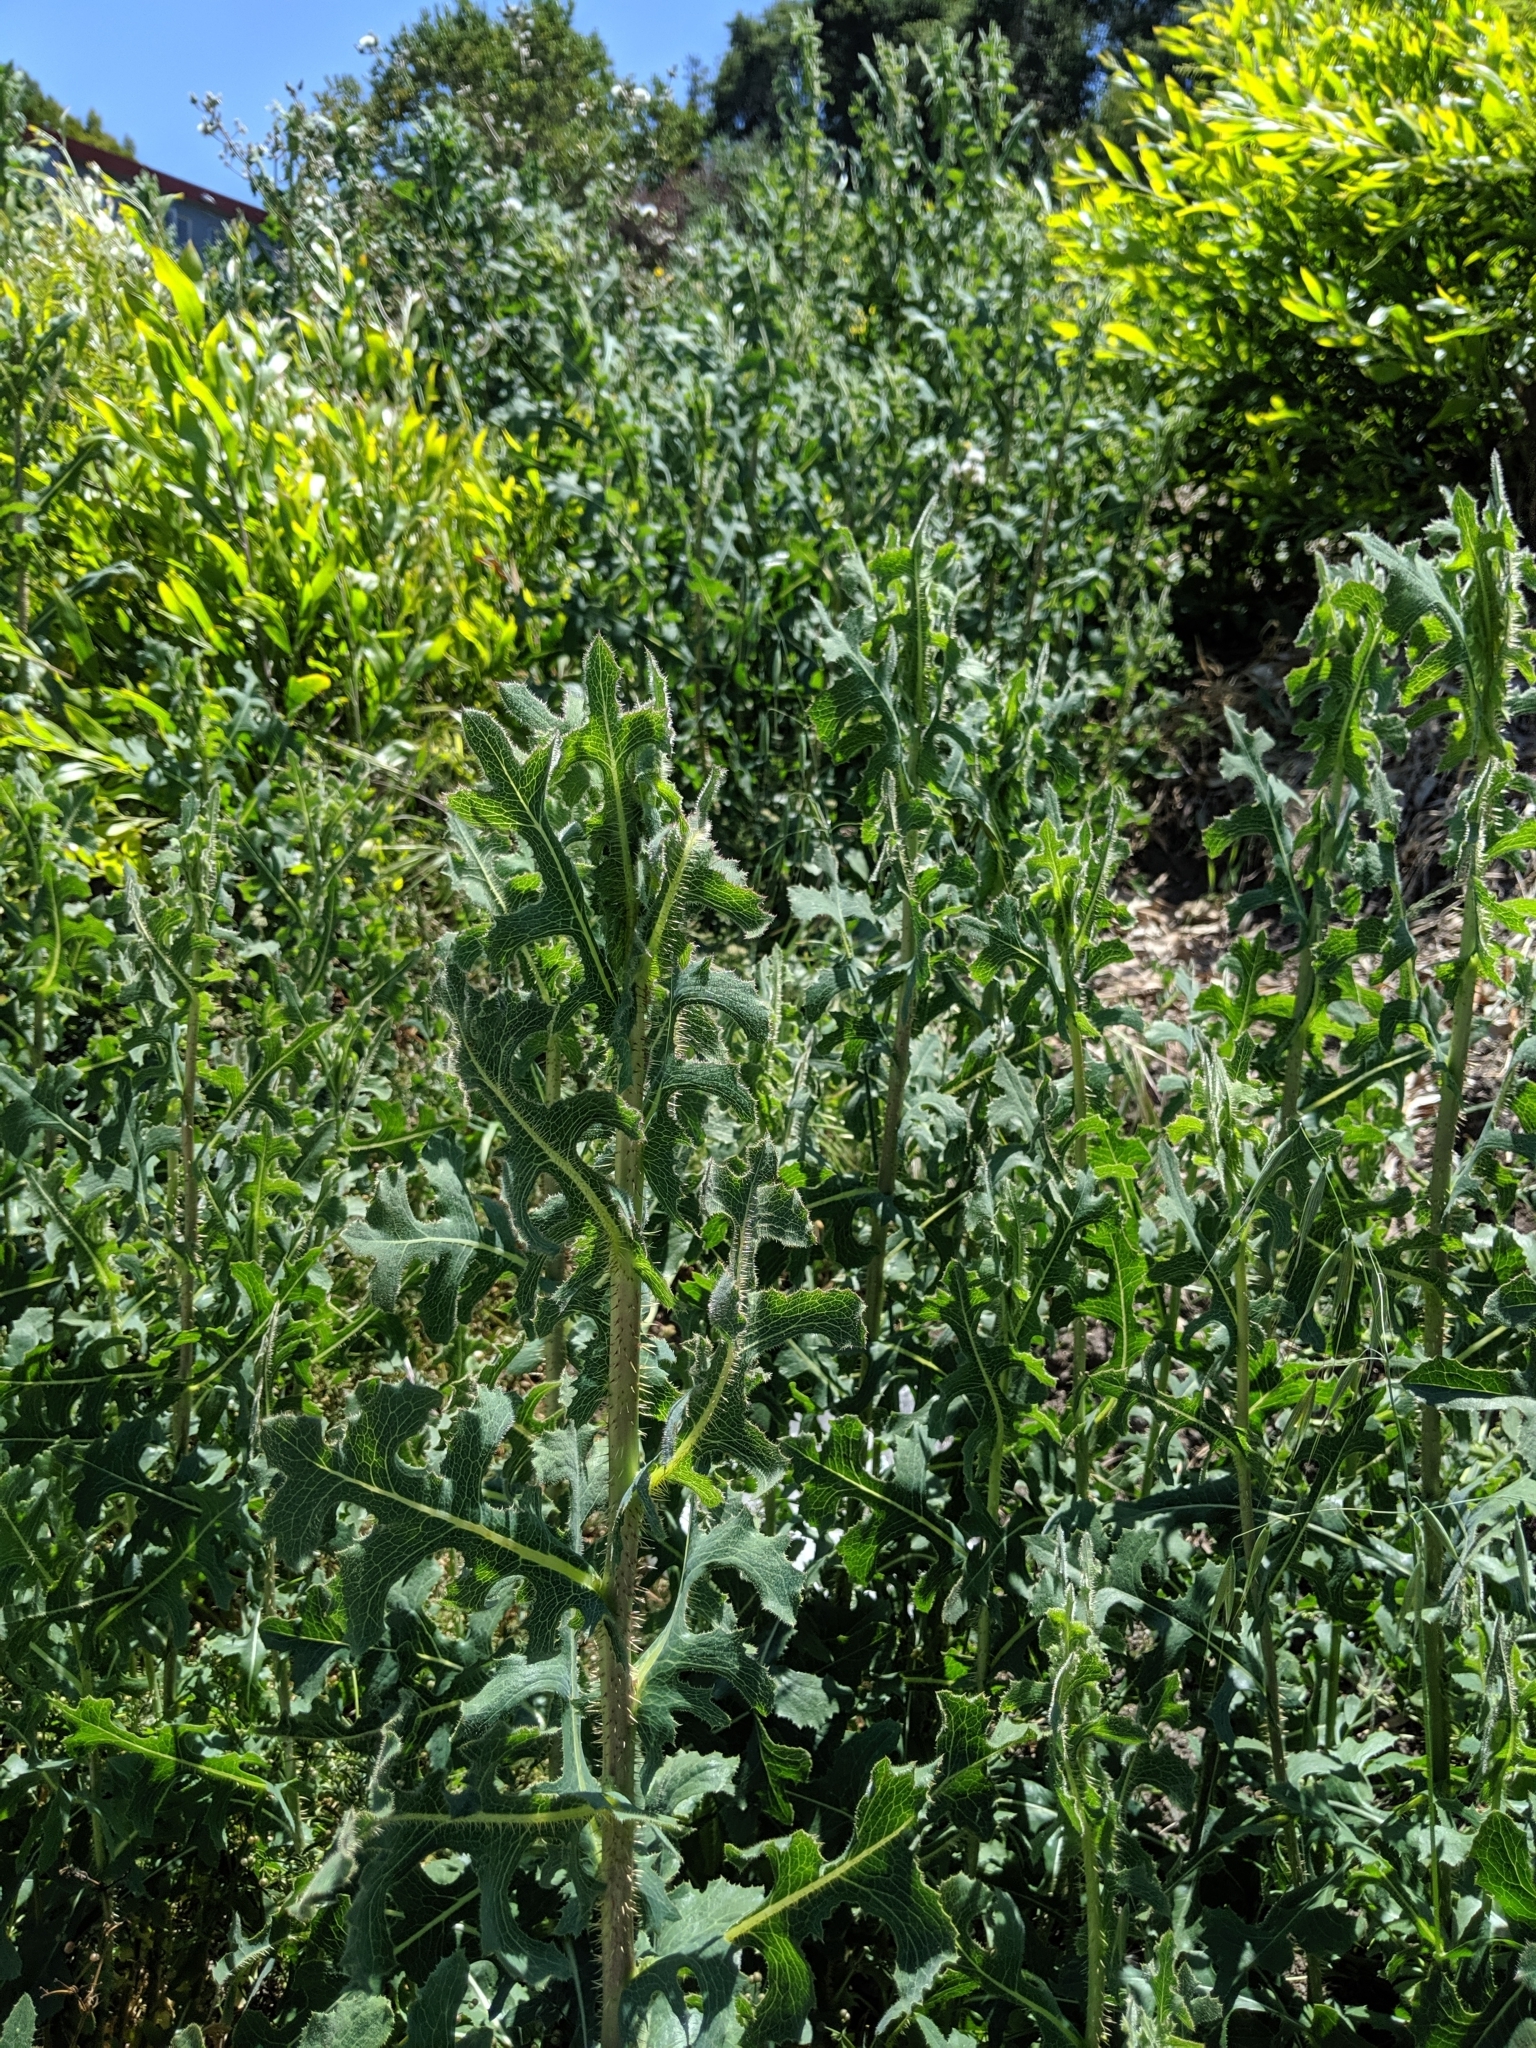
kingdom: Plantae
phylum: Tracheophyta
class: Magnoliopsida
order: Asterales
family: Asteraceae
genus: Lactuca
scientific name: Lactuca serriola
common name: Prickly lettuce
